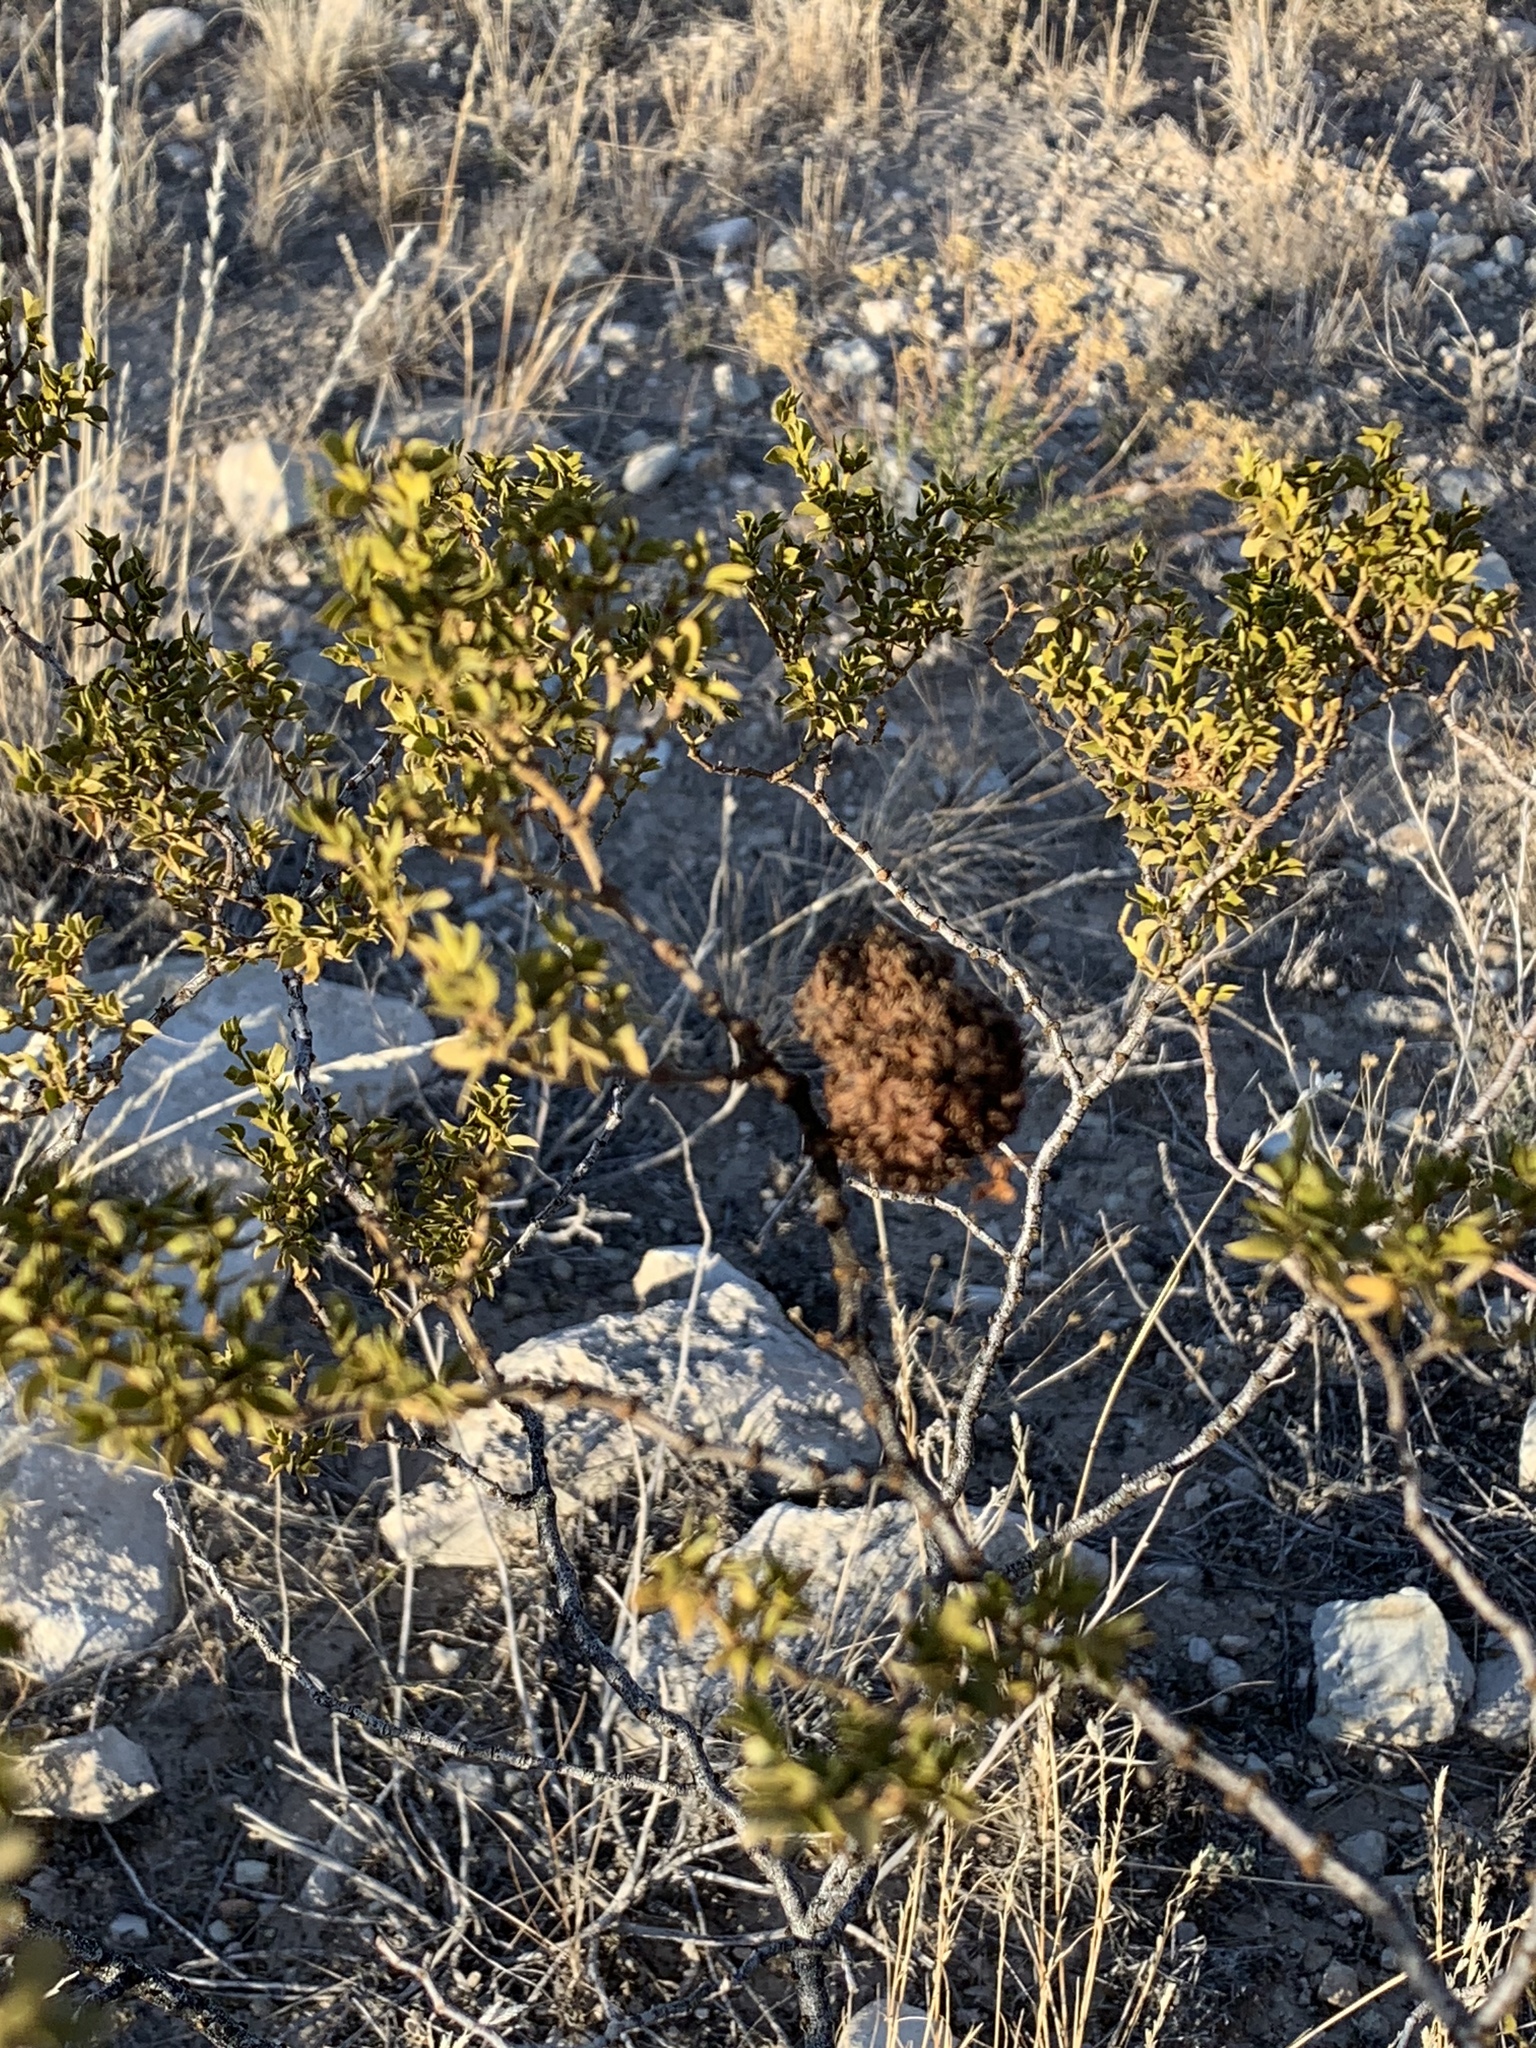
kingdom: Animalia
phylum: Arthropoda
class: Insecta
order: Diptera
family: Cecidomyiidae
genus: Asphondylia
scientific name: Asphondylia auripila
